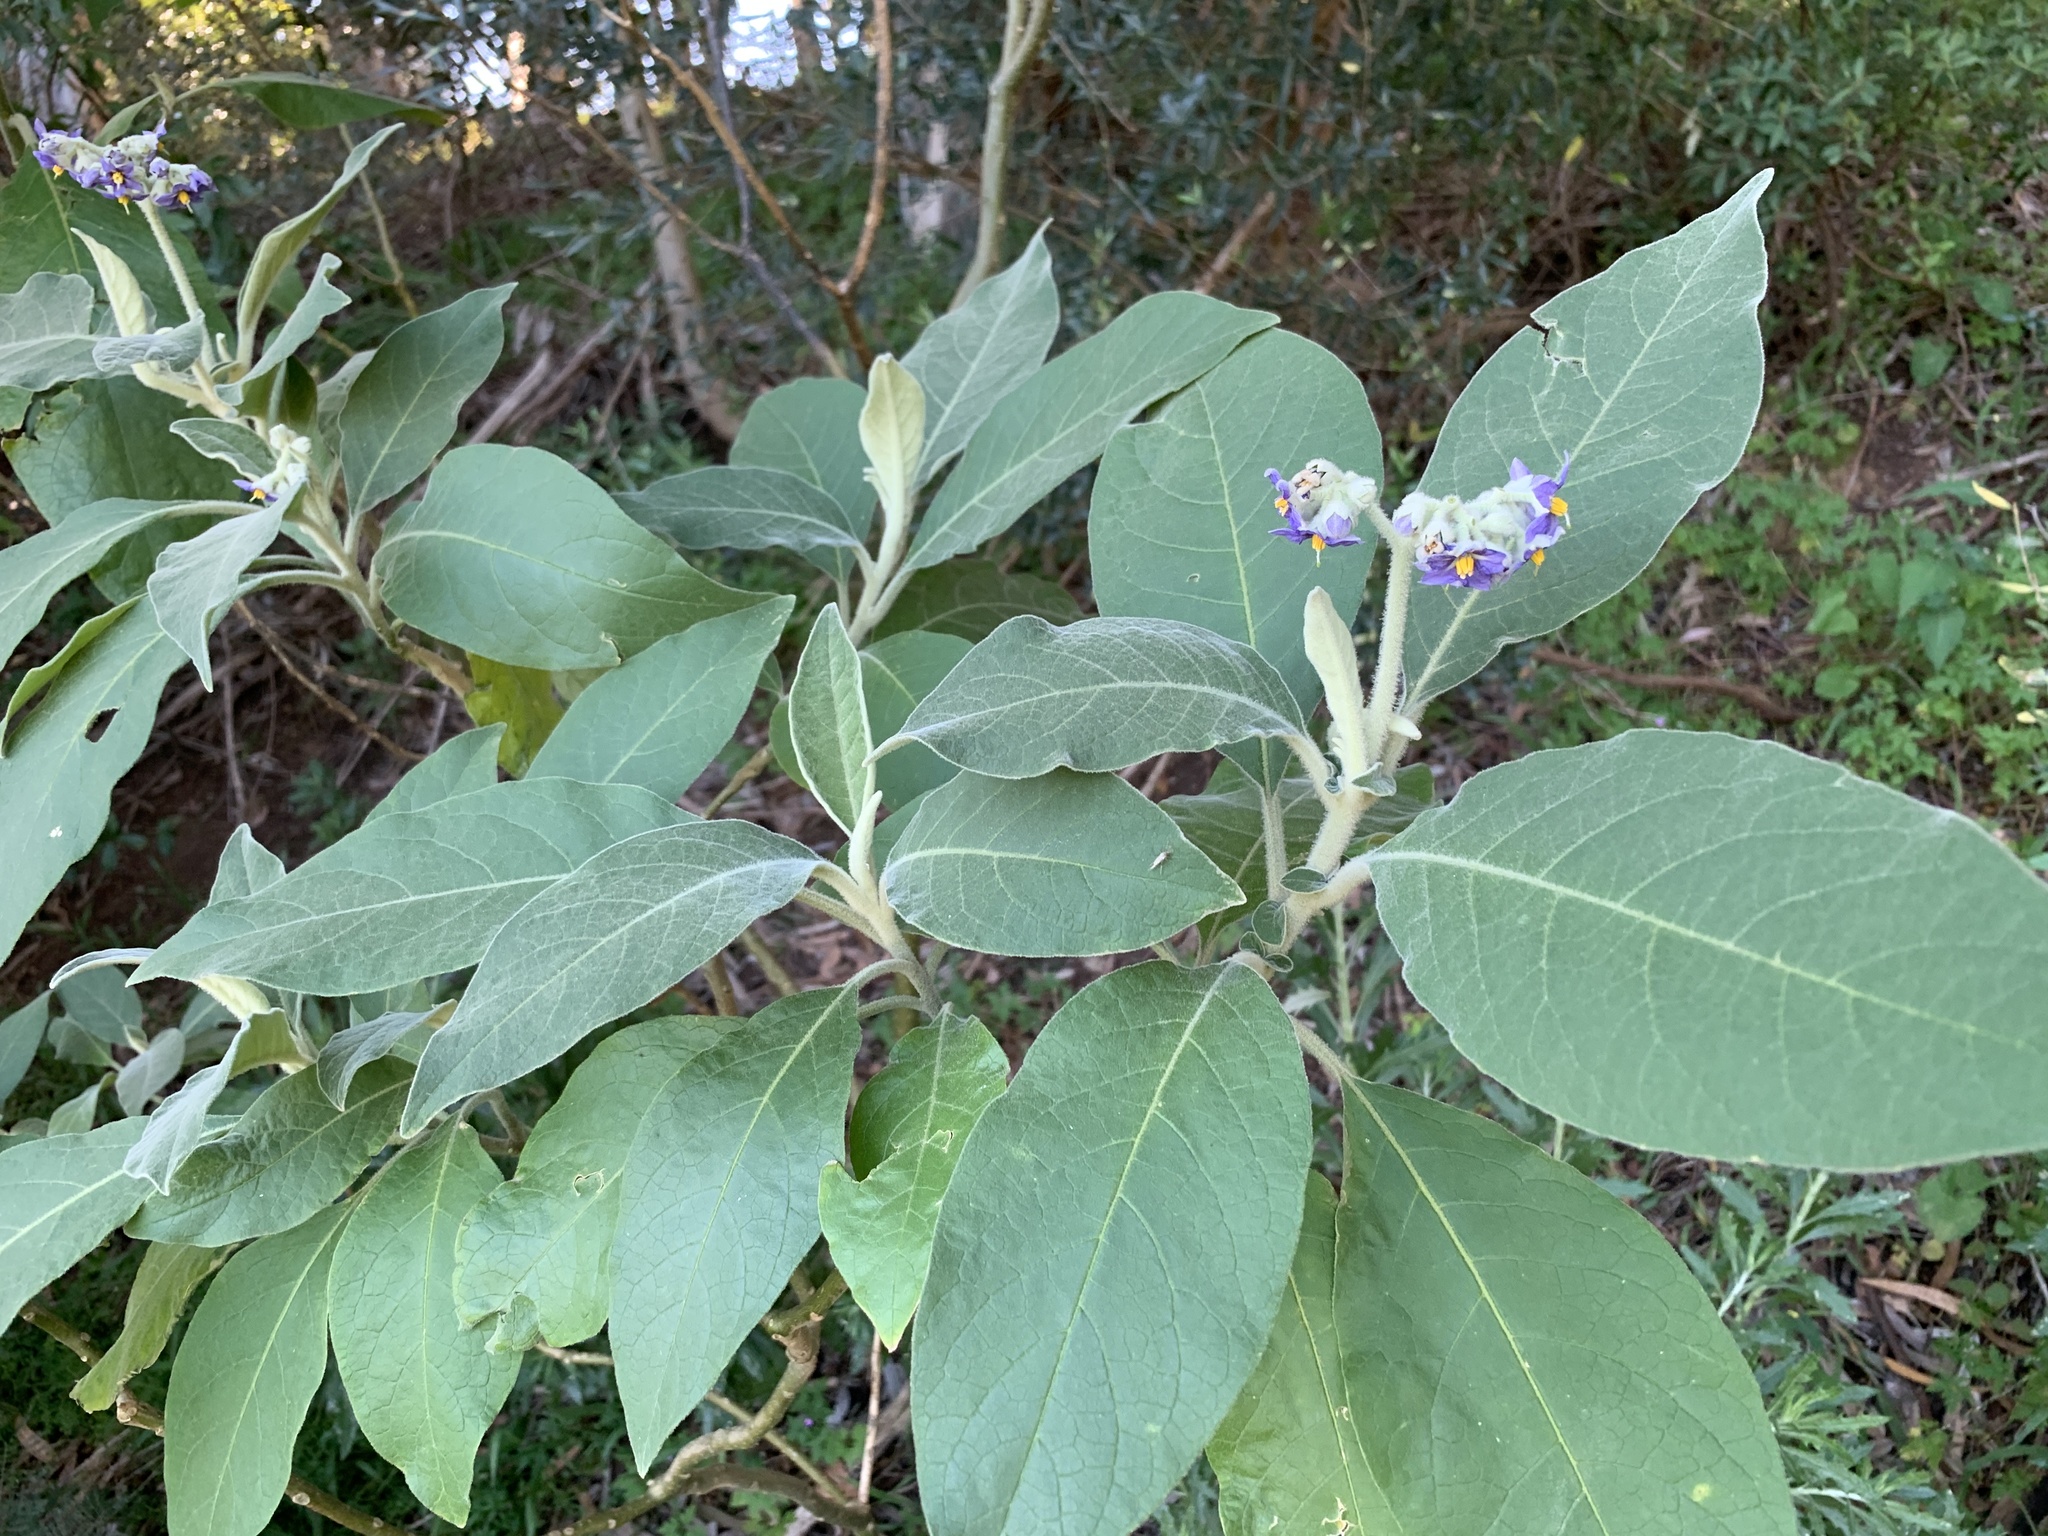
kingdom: Plantae
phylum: Tracheophyta
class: Magnoliopsida
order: Solanales
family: Solanaceae
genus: Solanum
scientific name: Solanum mauritianum
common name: Earleaf nightshade
